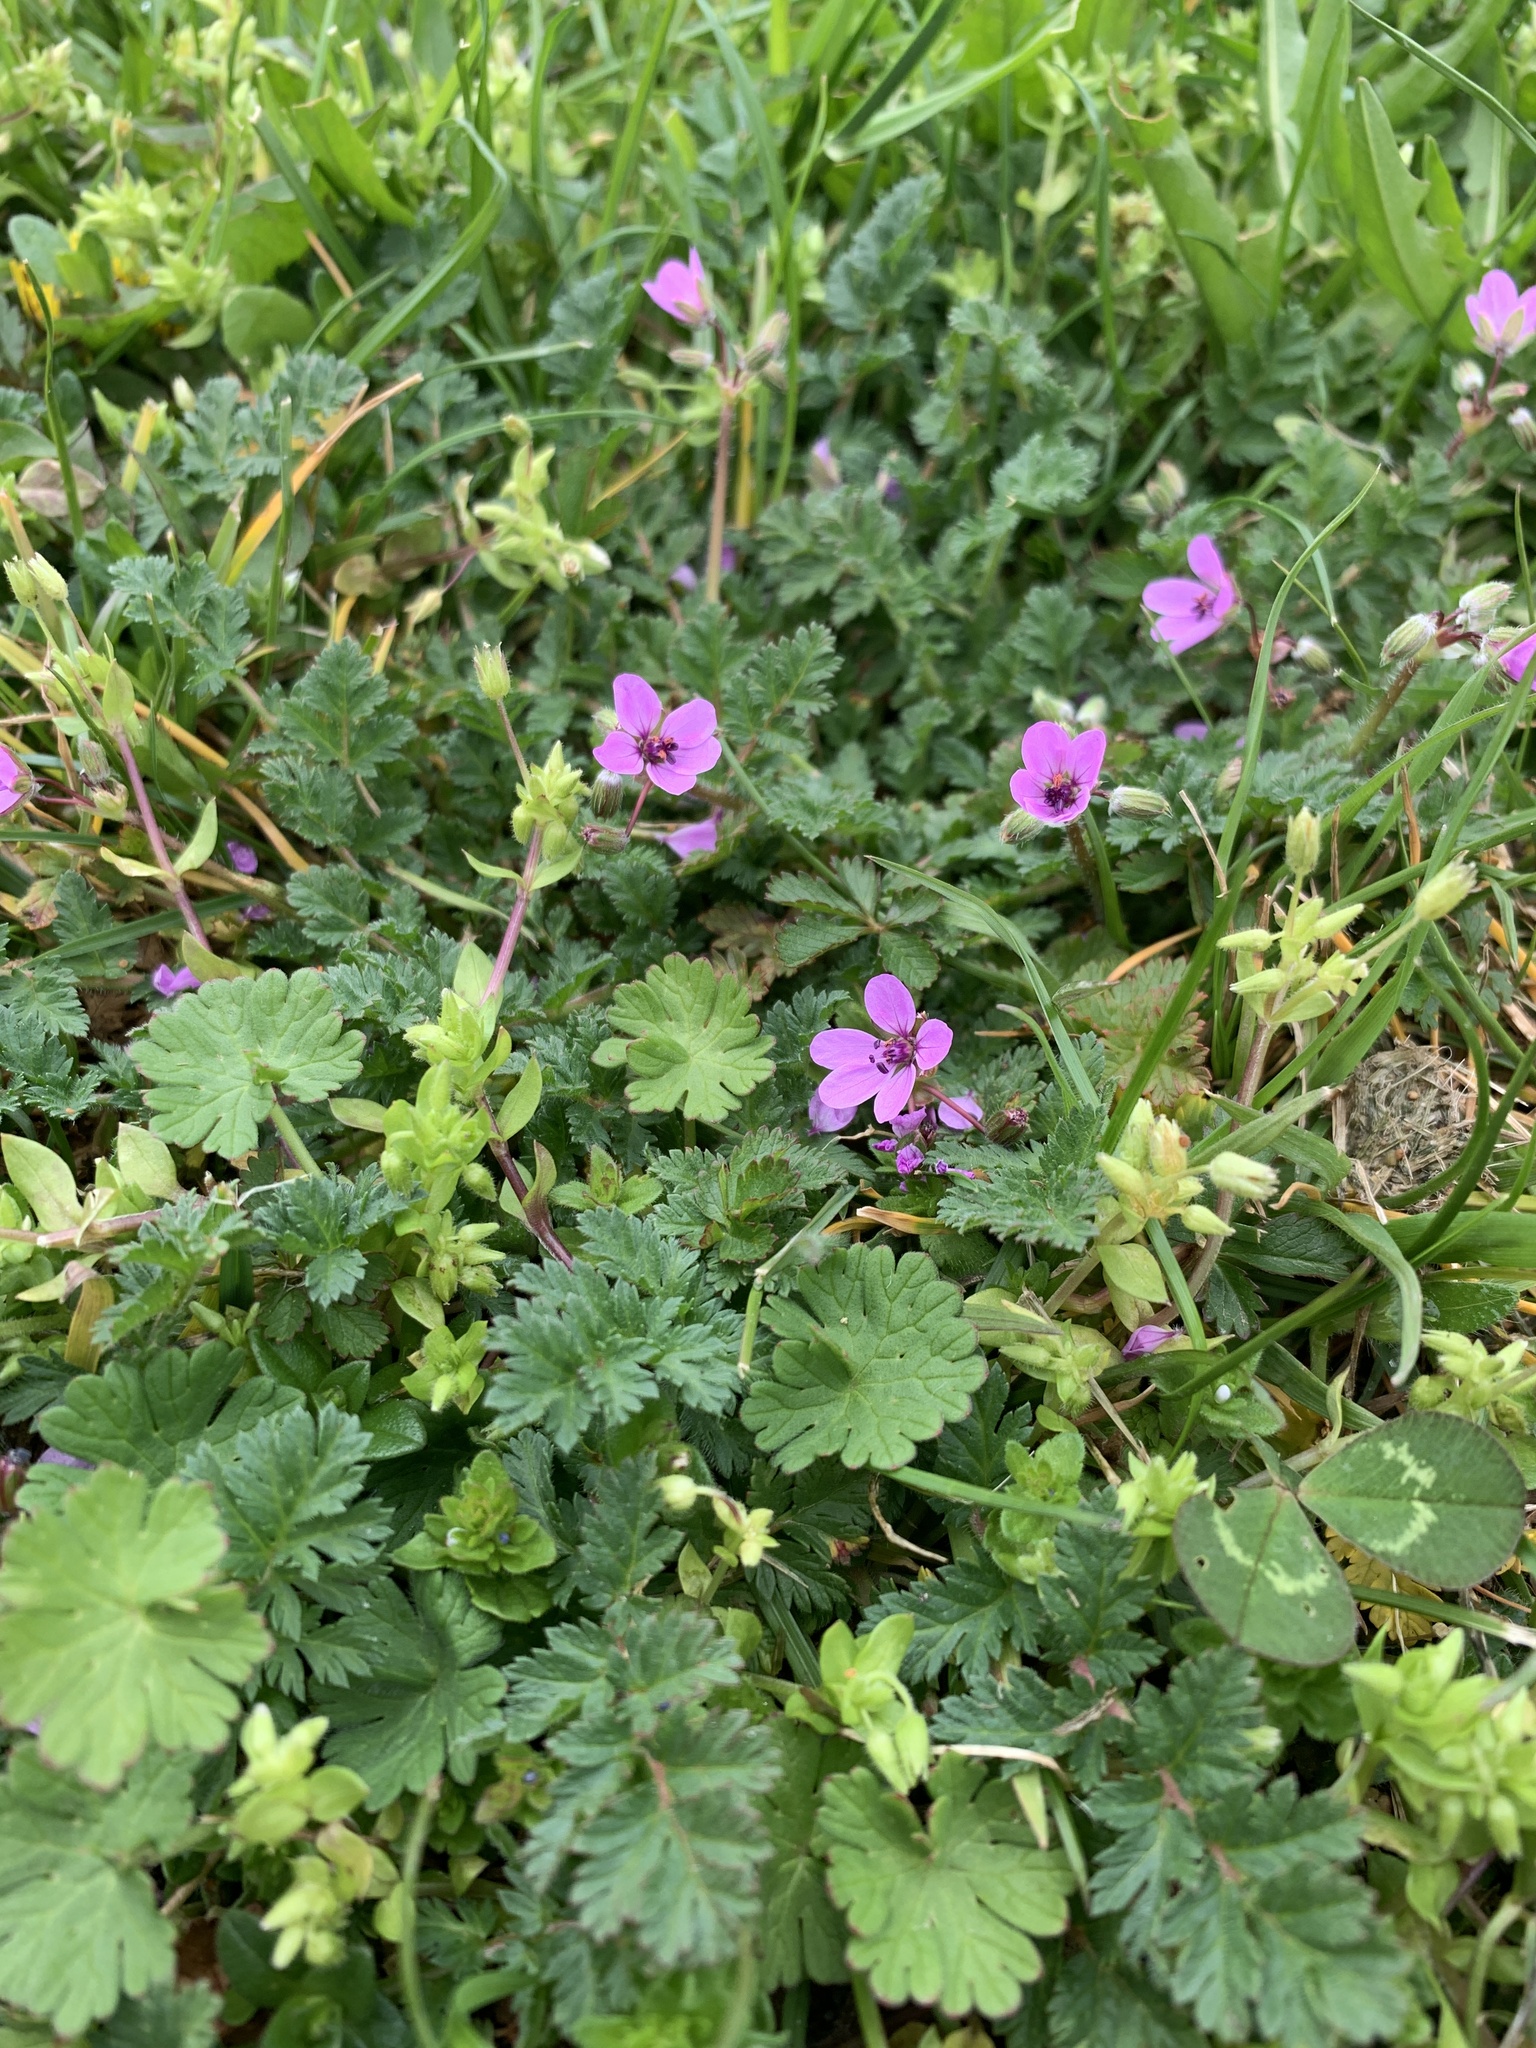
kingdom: Plantae
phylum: Tracheophyta
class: Magnoliopsida
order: Geraniales
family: Geraniaceae
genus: Erodium
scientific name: Erodium cicutarium
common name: Common stork's-bill
